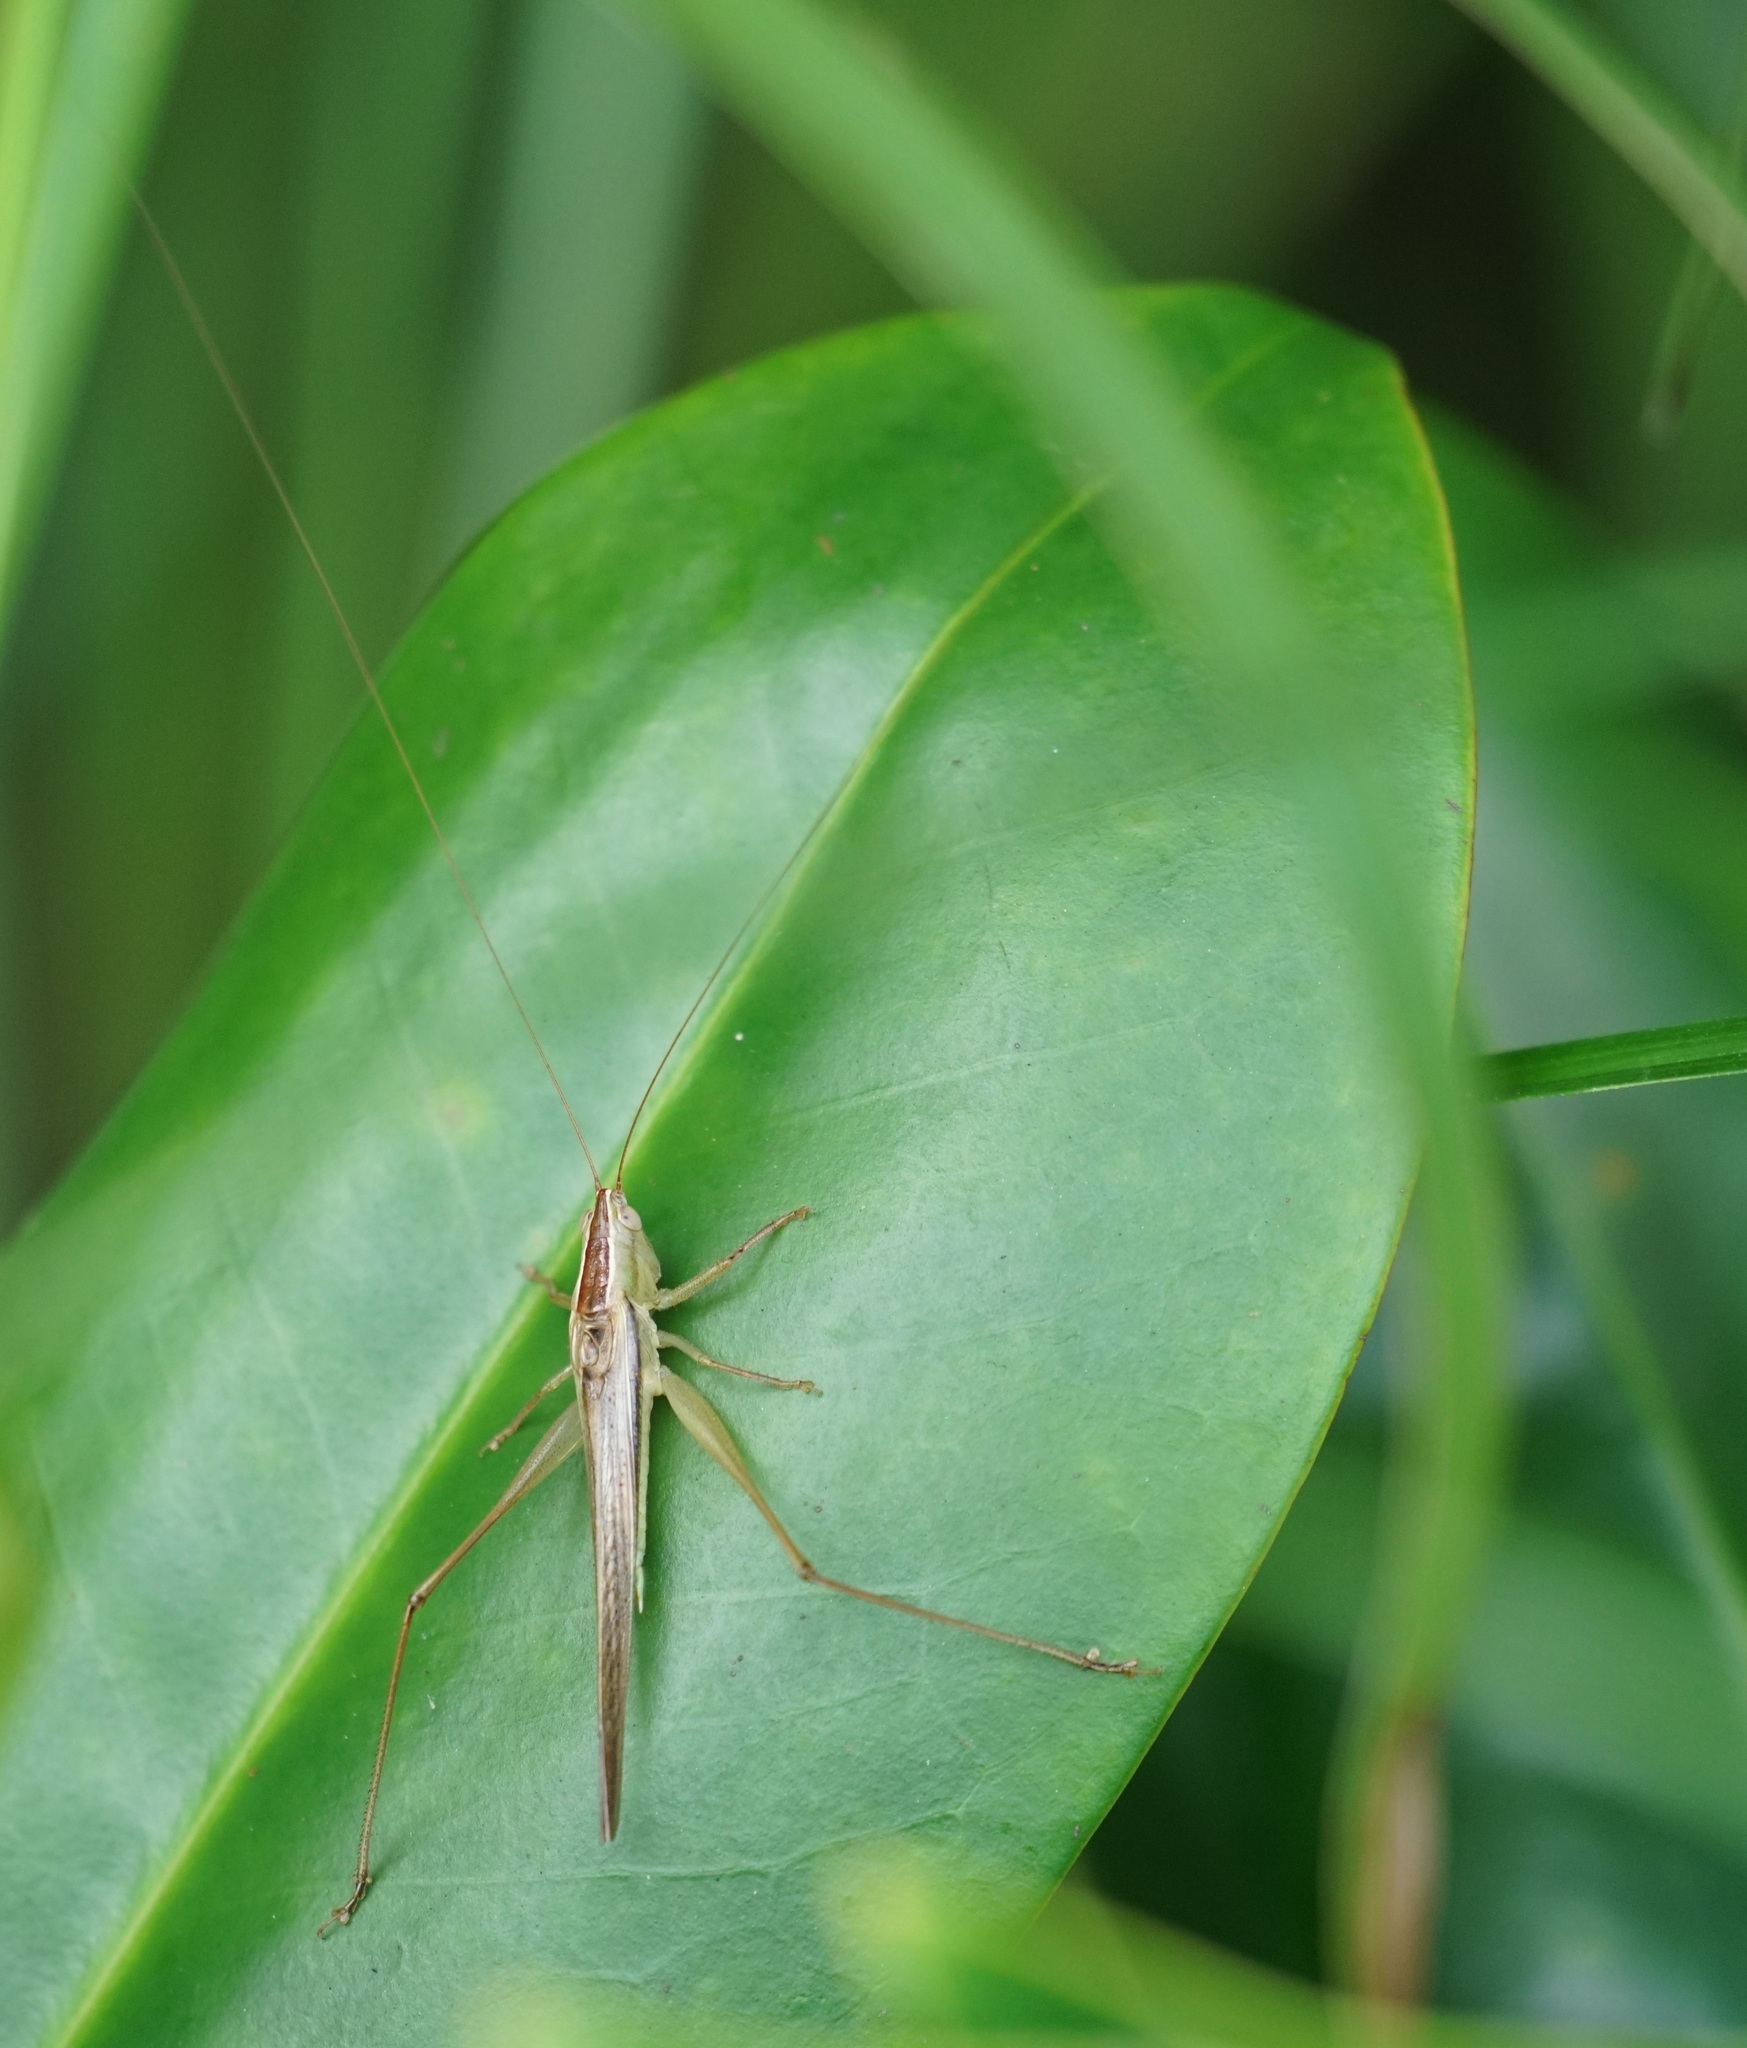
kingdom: Animalia
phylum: Arthropoda
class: Insecta
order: Orthoptera
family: Tettigoniidae
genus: Conocephalus
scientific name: Conocephalus upoluensis
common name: Upolu meadow katydid
